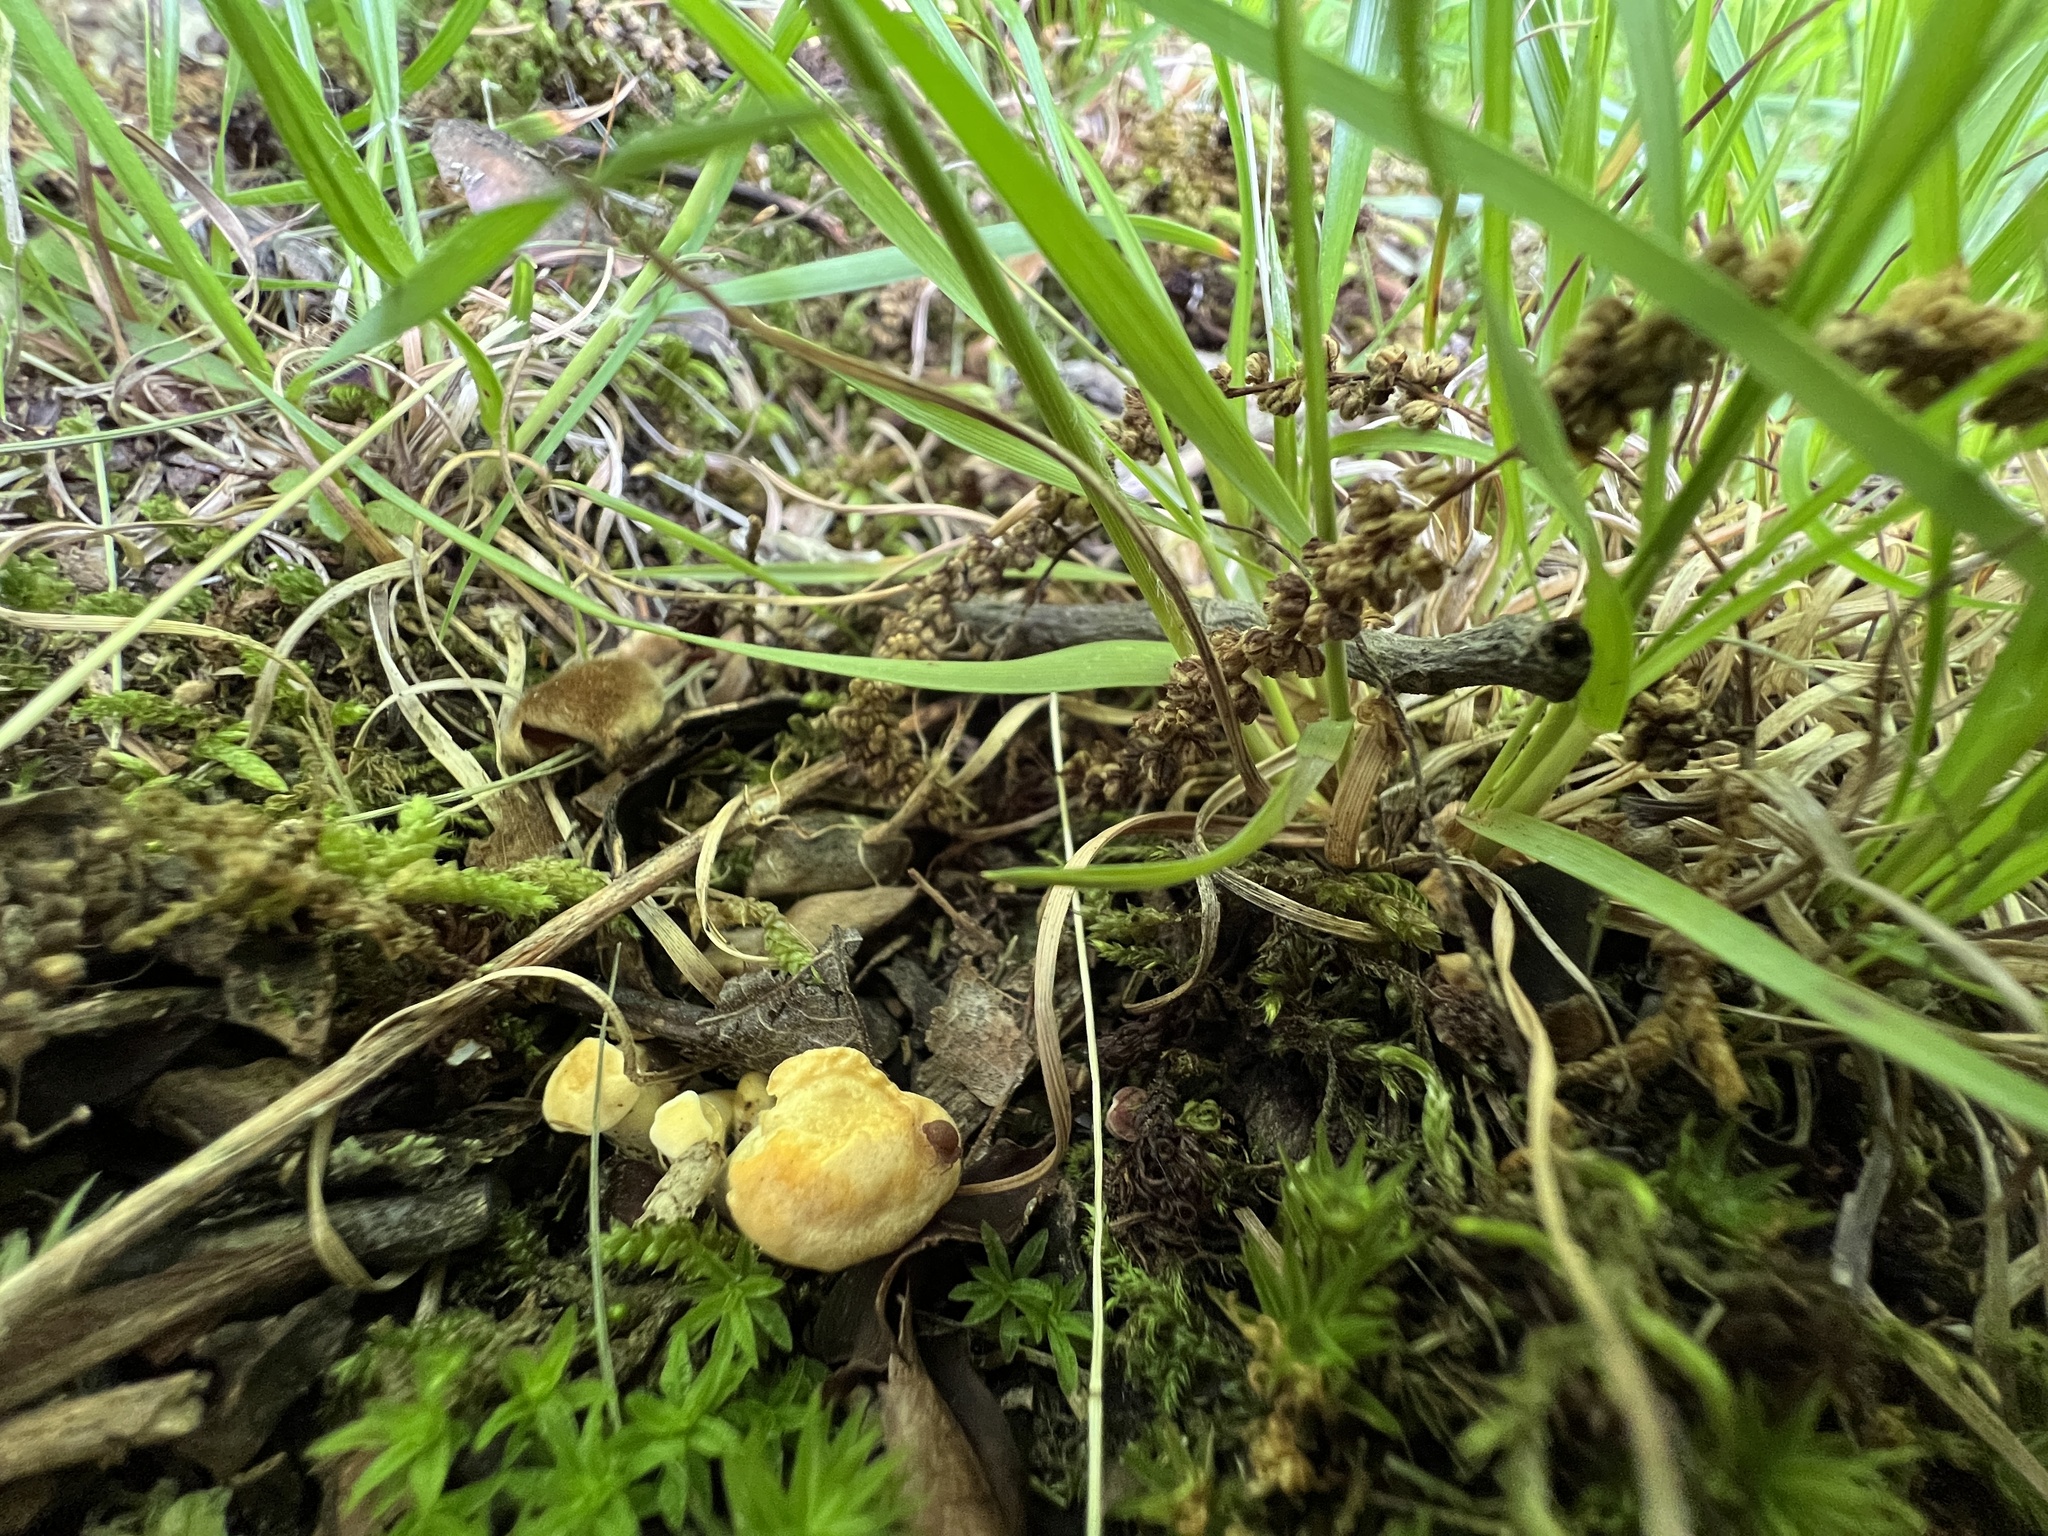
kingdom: Fungi
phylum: Basidiomycota
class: Agaricomycetes
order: Cantharellales
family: Hydnaceae
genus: Cantharellus
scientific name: Cantharellus flavolateritius
